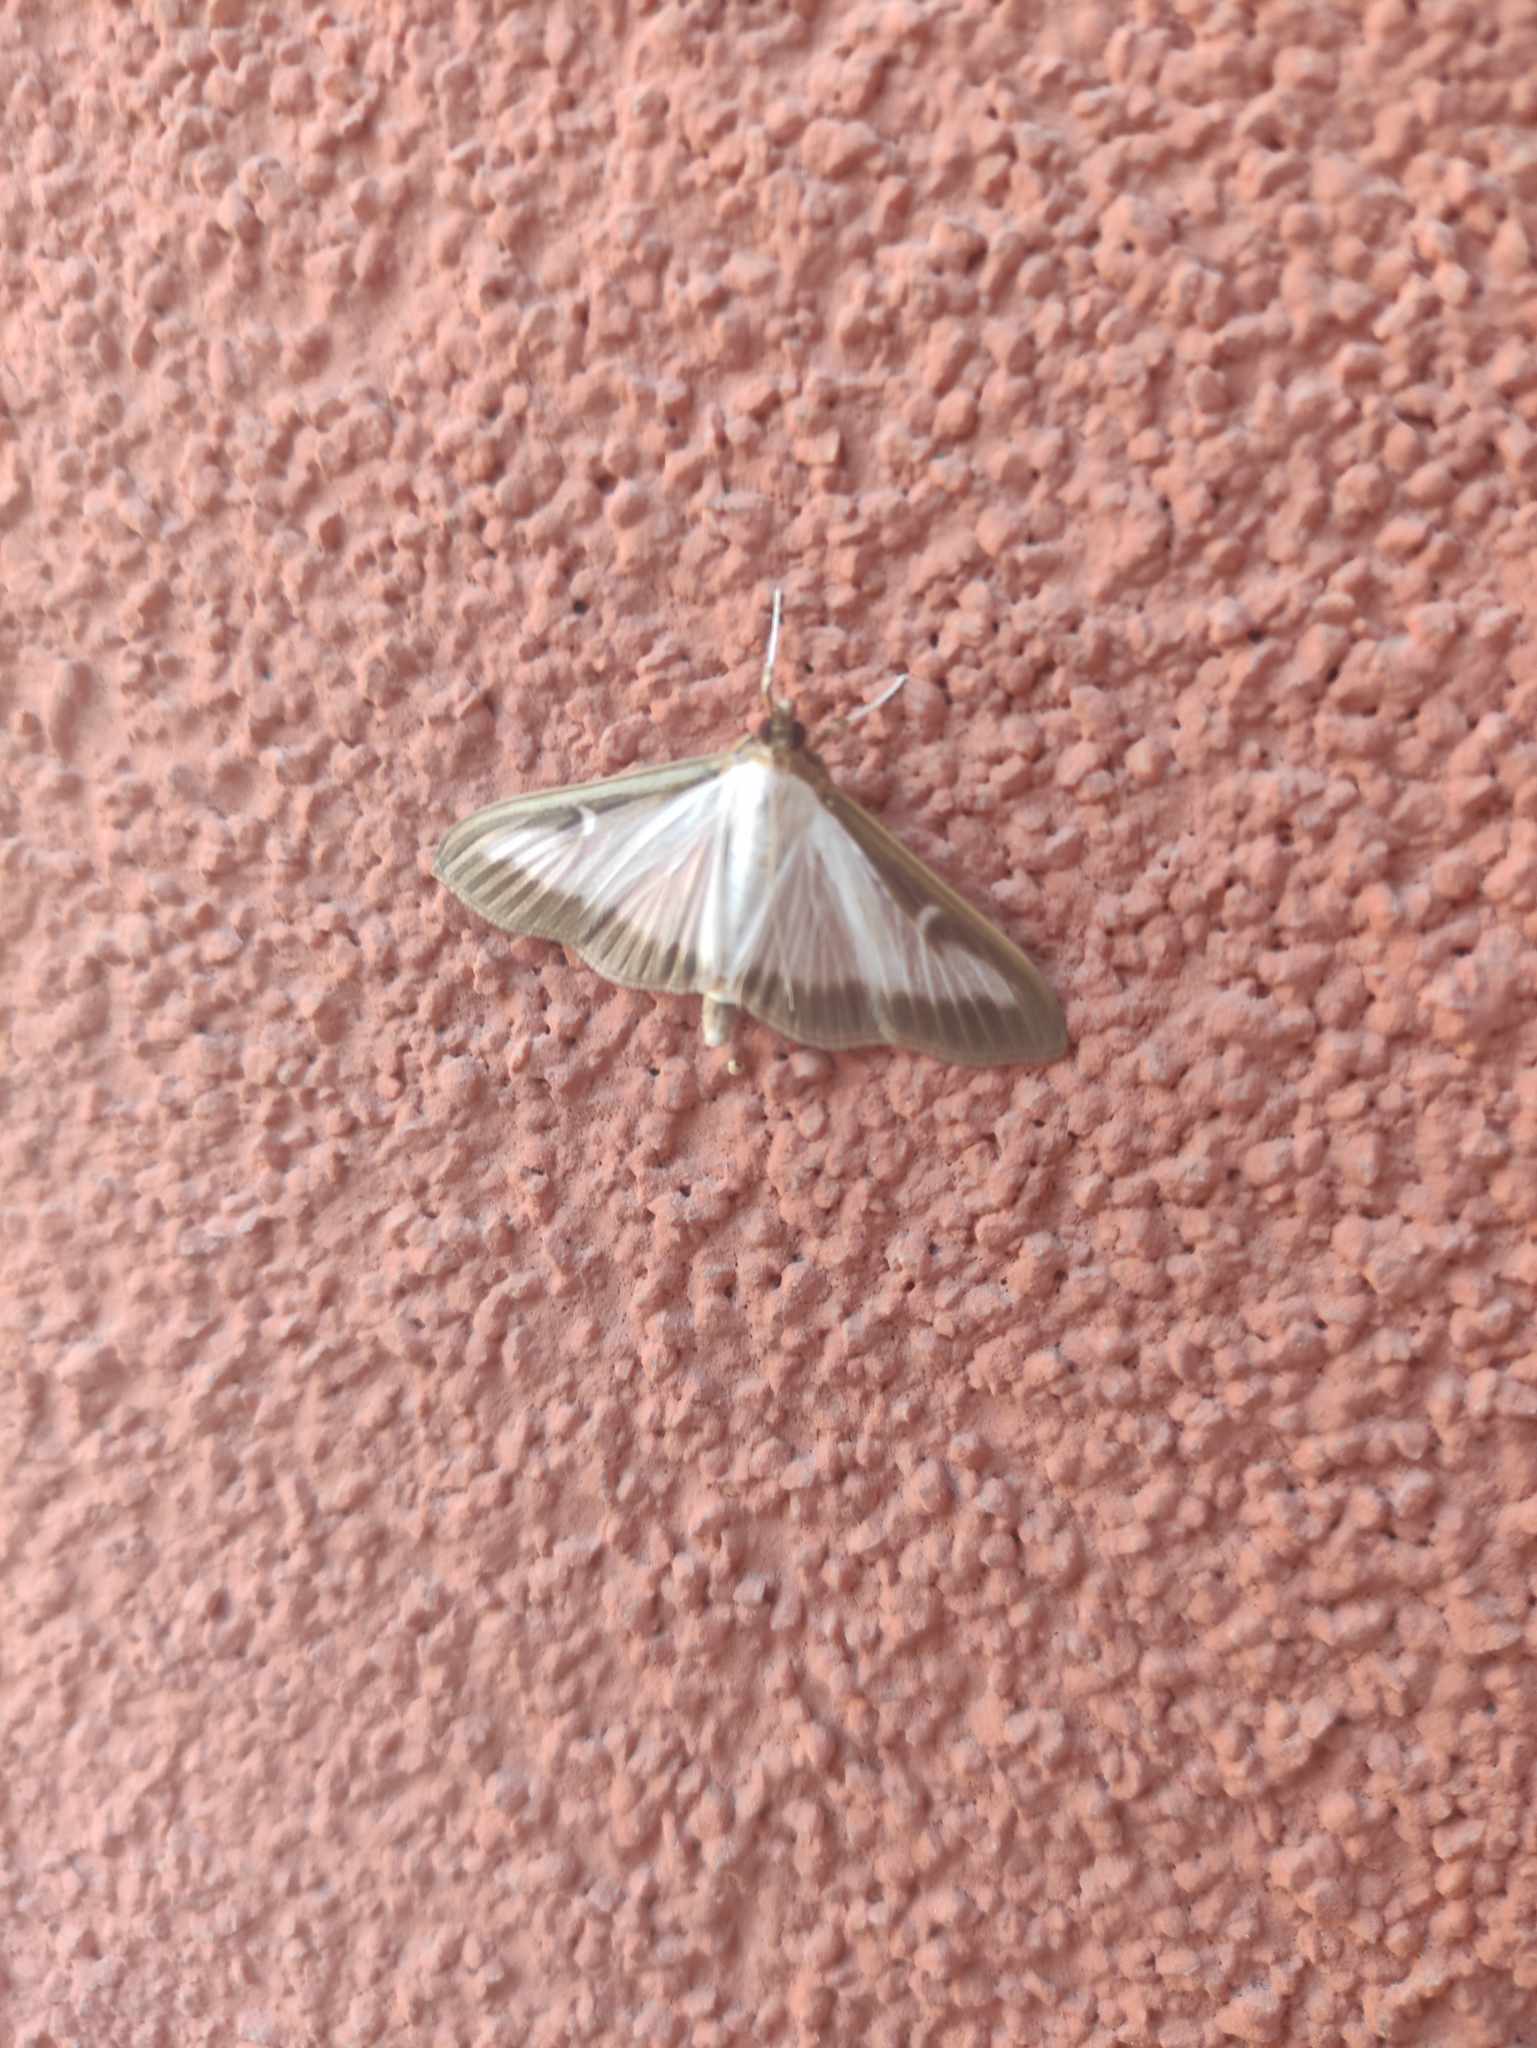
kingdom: Animalia
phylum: Arthropoda
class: Insecta
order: Lepidoptera
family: Crambidae
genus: Cydalima
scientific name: Cydalima perspectalis
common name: Box tree moth
